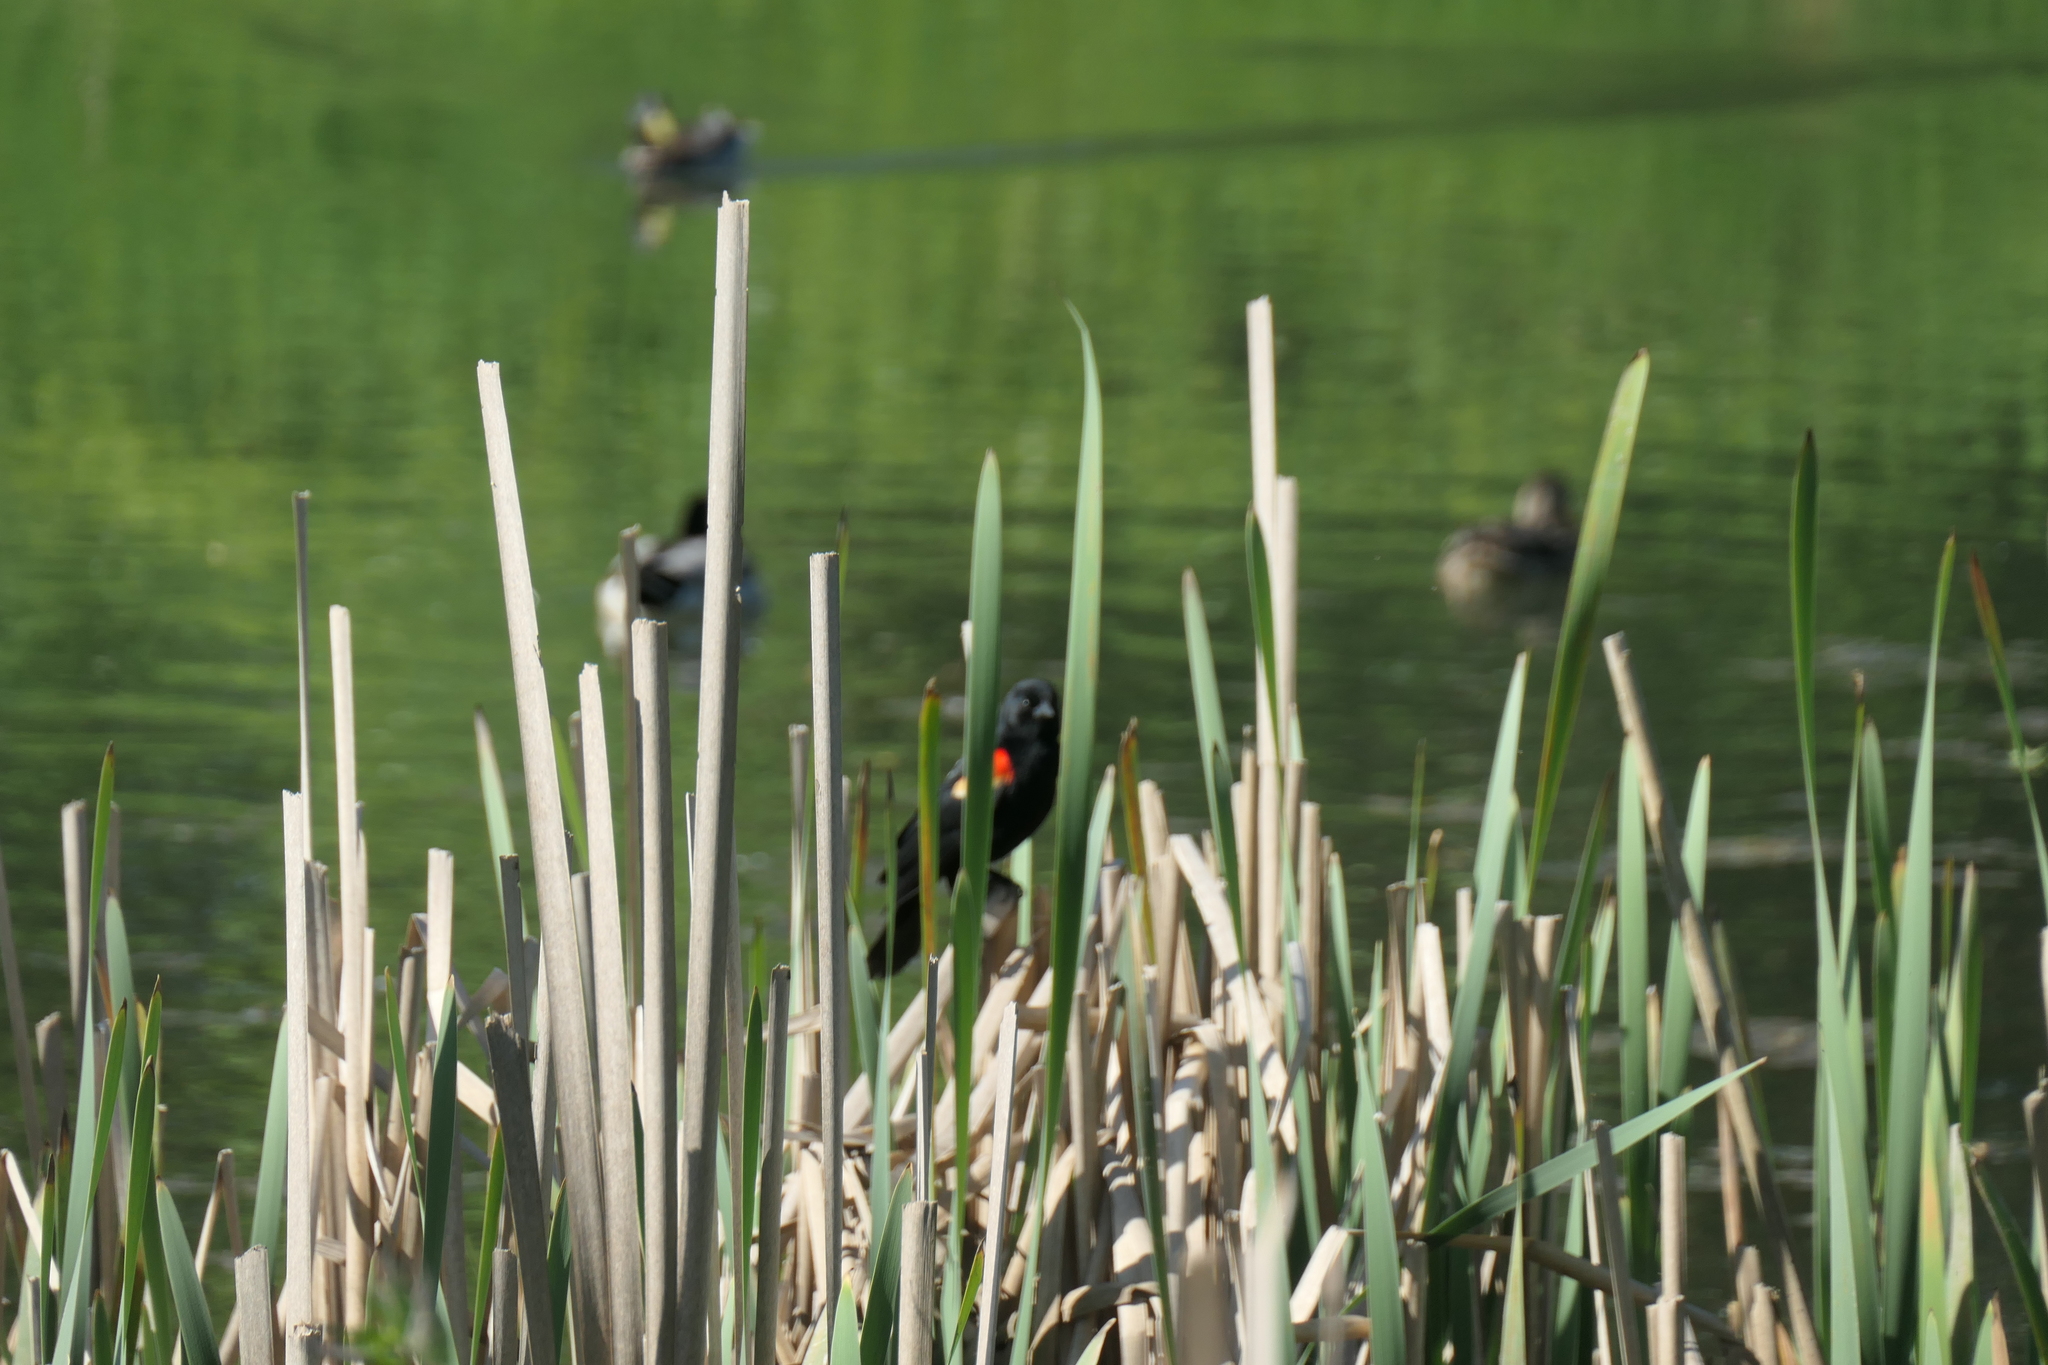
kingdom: Animalia
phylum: Chordata
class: Aves
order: Passeriformes
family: Icteridae
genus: Agelaius
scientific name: Agelaius phoeniceus
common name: Red-winged blackbird
